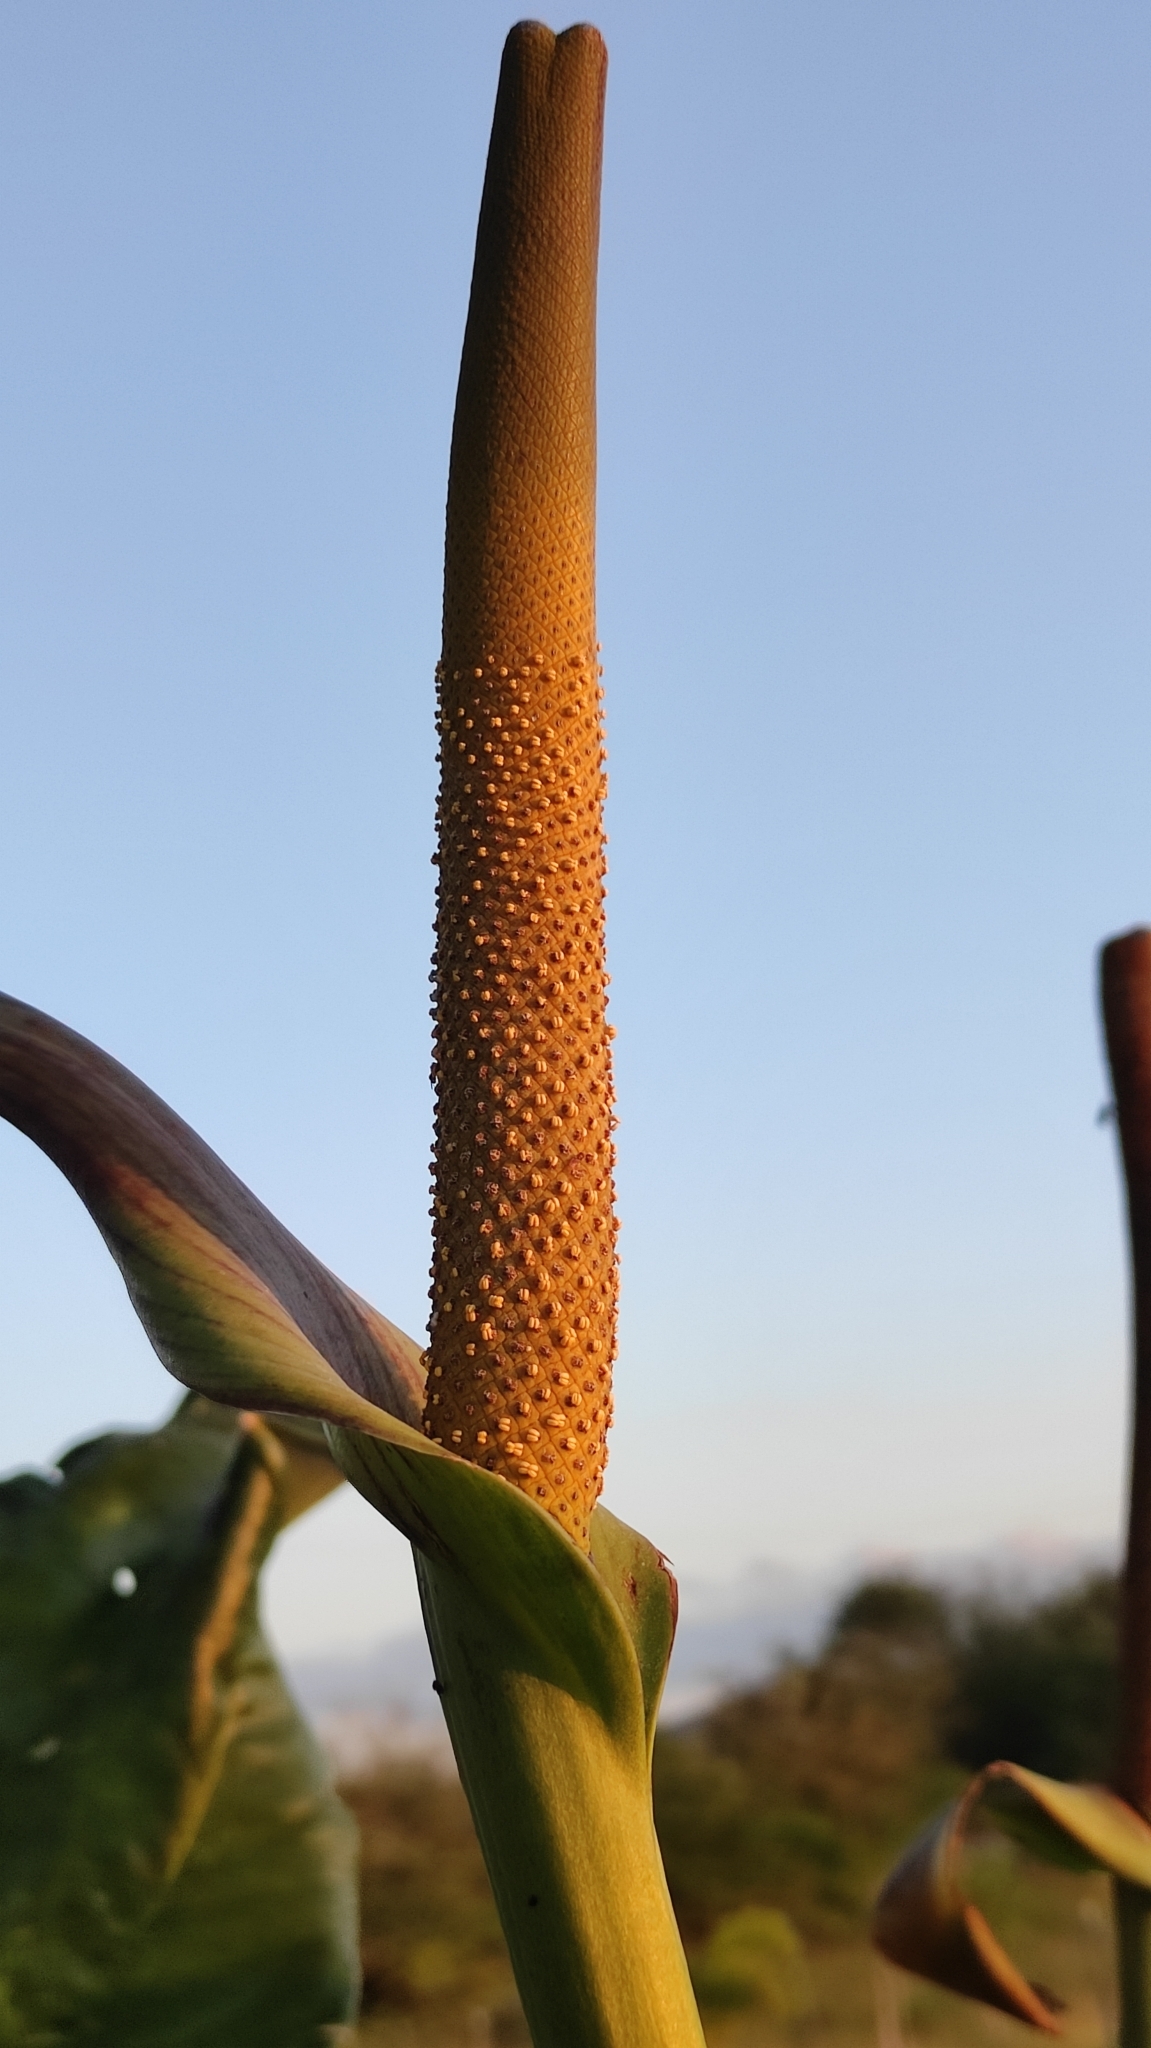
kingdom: Plantae
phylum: Tracheophyta
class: Liliopsida
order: Alismatales
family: Araceae
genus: Anthurium
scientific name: Anthurium affine
